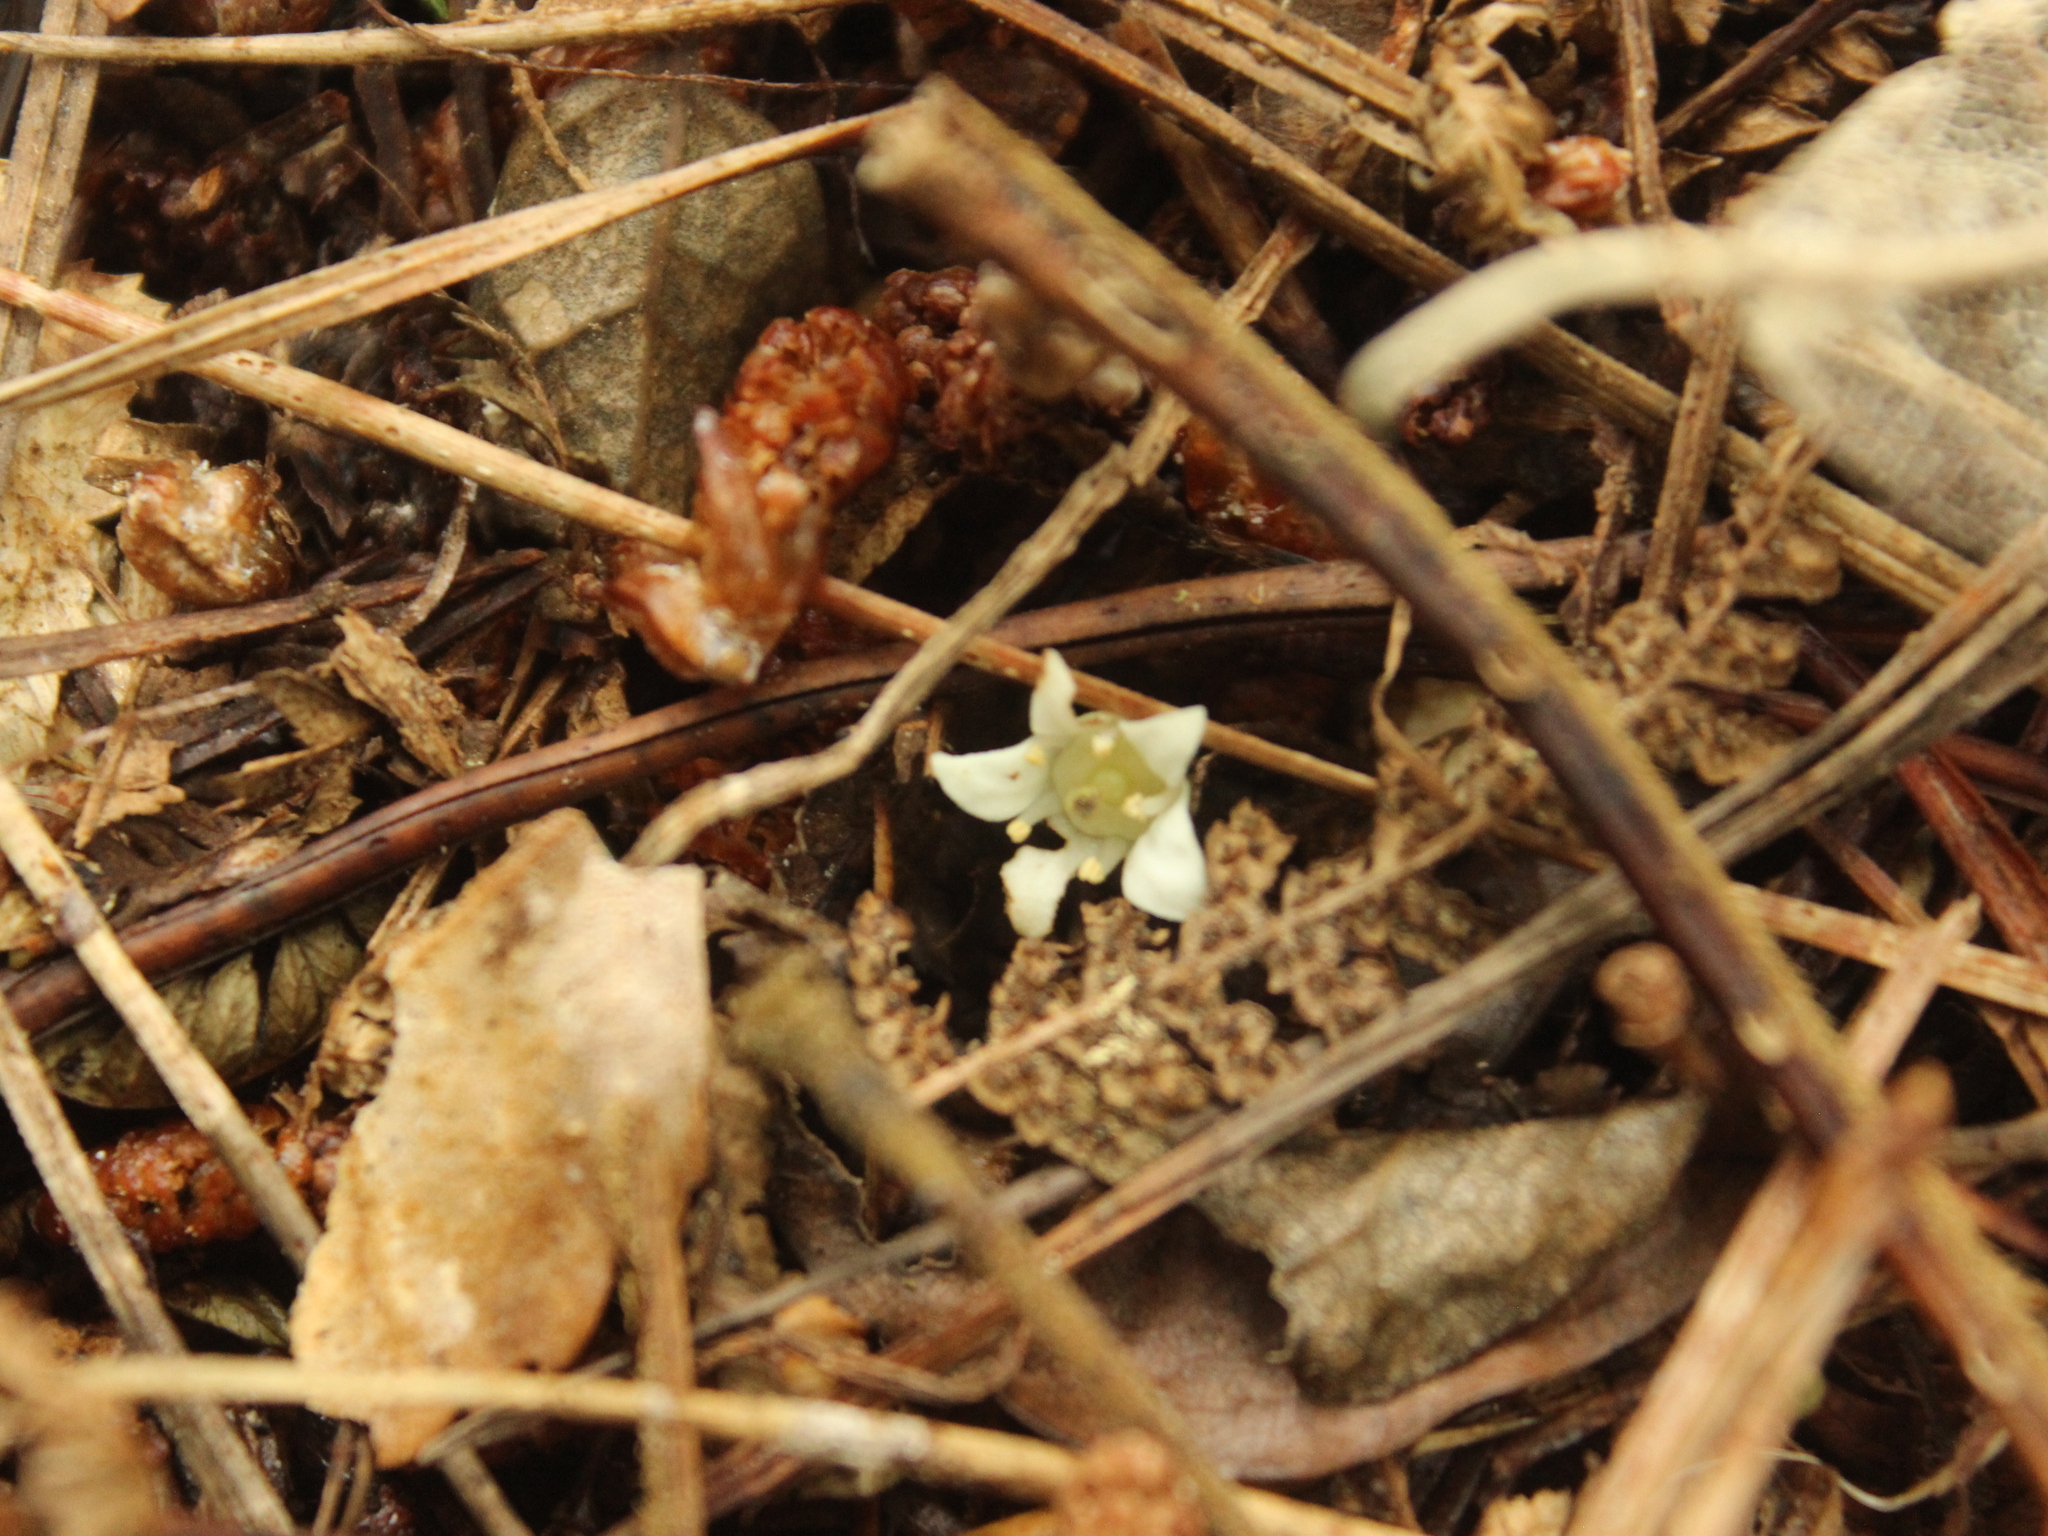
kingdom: Plantae
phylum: Tracheophyta
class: Magnoliopsida
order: Apiales
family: Pennantiaceae
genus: Pennantia
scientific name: Pennantia corymbosa
